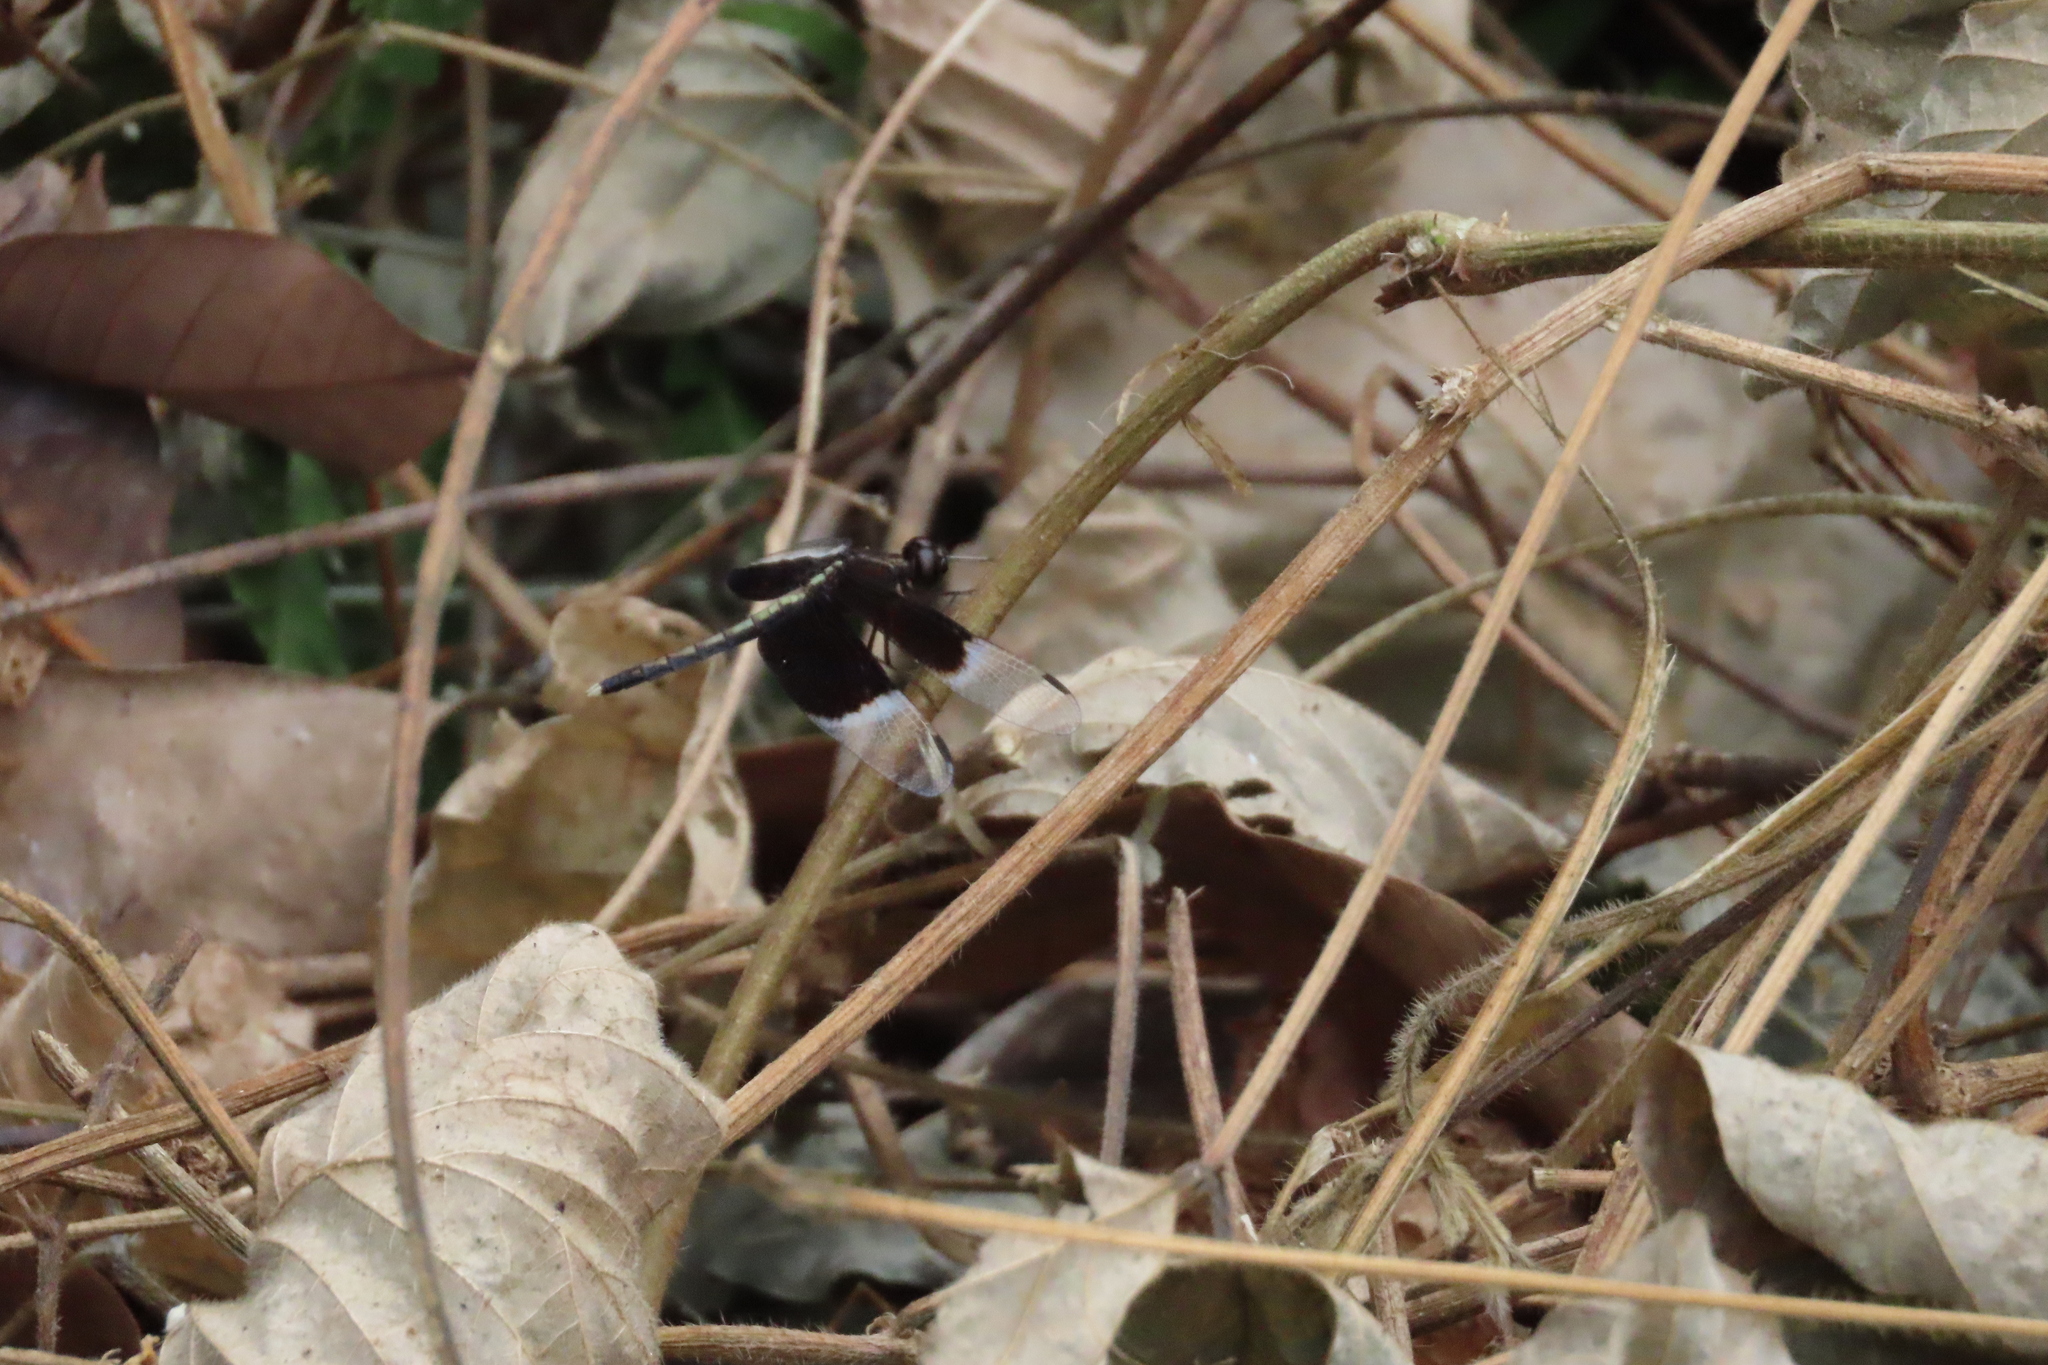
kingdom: Animalia
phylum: Arthropoda
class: Insecta
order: Odonata
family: Libellulidae
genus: Neurothemis
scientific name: Neurothemis tullia
